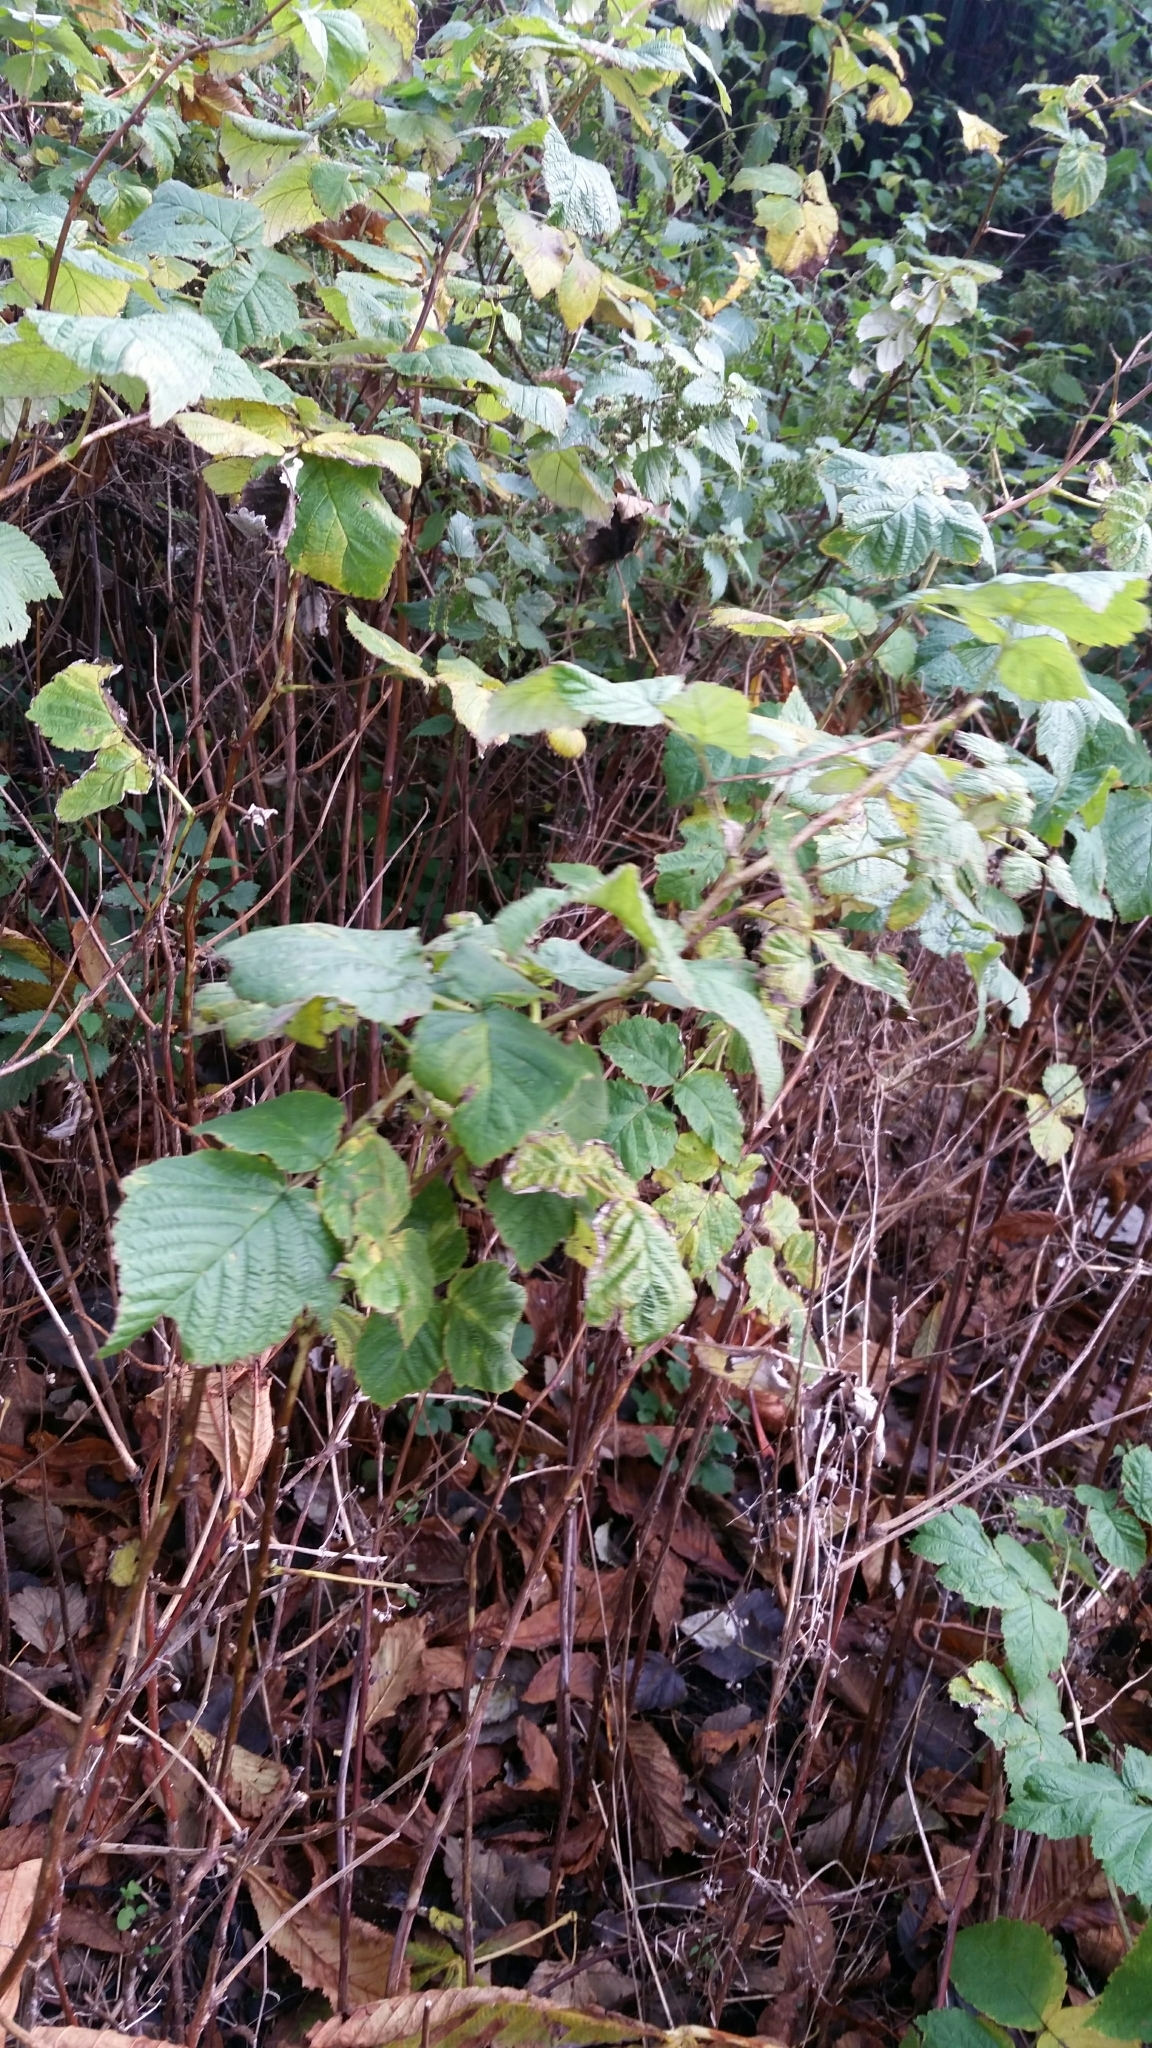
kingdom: Plantae
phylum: Tracheophyta
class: Magnoliopsida
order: Rosales
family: Rosaceae
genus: Rubus
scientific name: Rubus idaeus
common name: Raspberry
